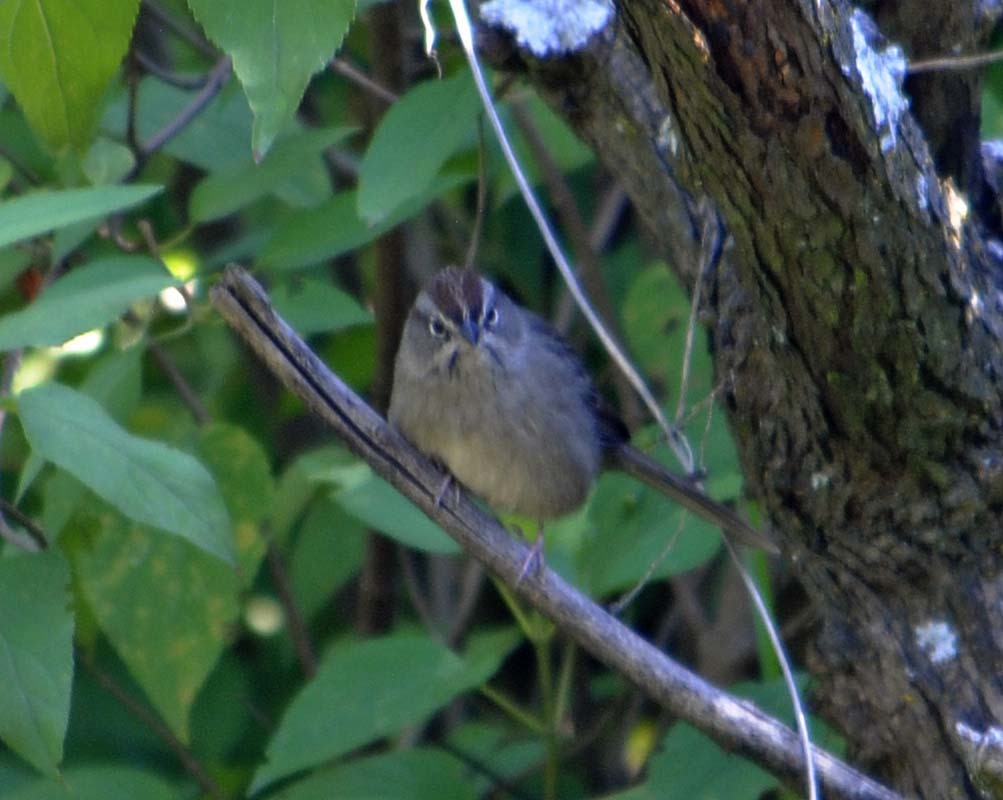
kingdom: Animalia
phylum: Chordata
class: Aves
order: Passeriformes
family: Passerellidae
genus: Aimophila
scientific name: Aimophila ruficeps
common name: Rufous-crowned sparrow
